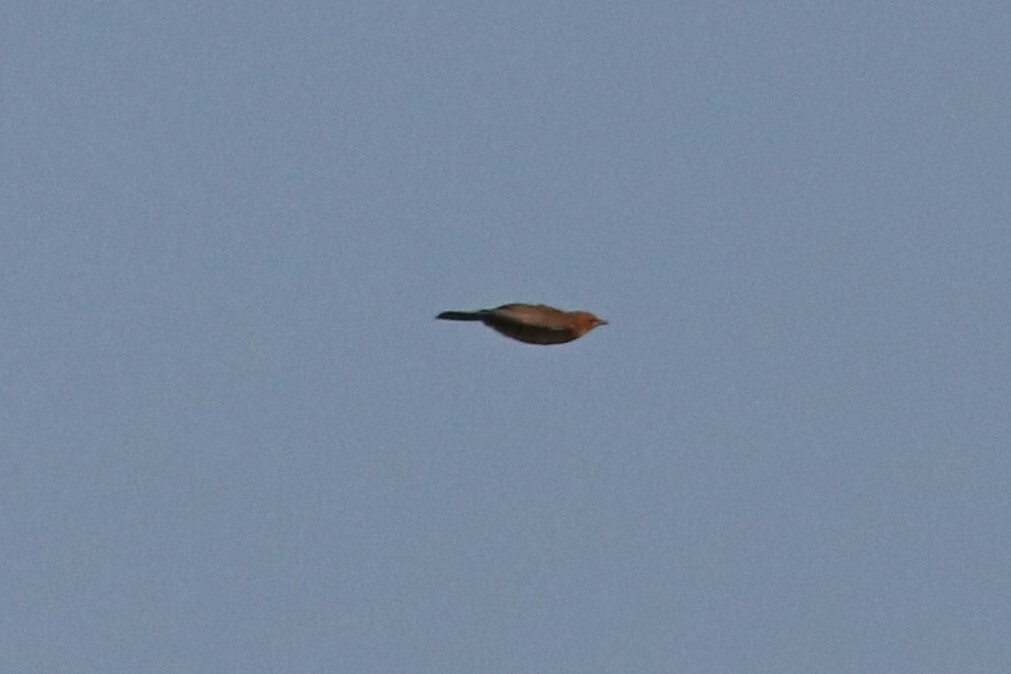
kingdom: Animalia
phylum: Chordata
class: Aves
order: Passeriformes
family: Turdidae
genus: Turdus
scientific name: Turdus merula
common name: Common blackbird
